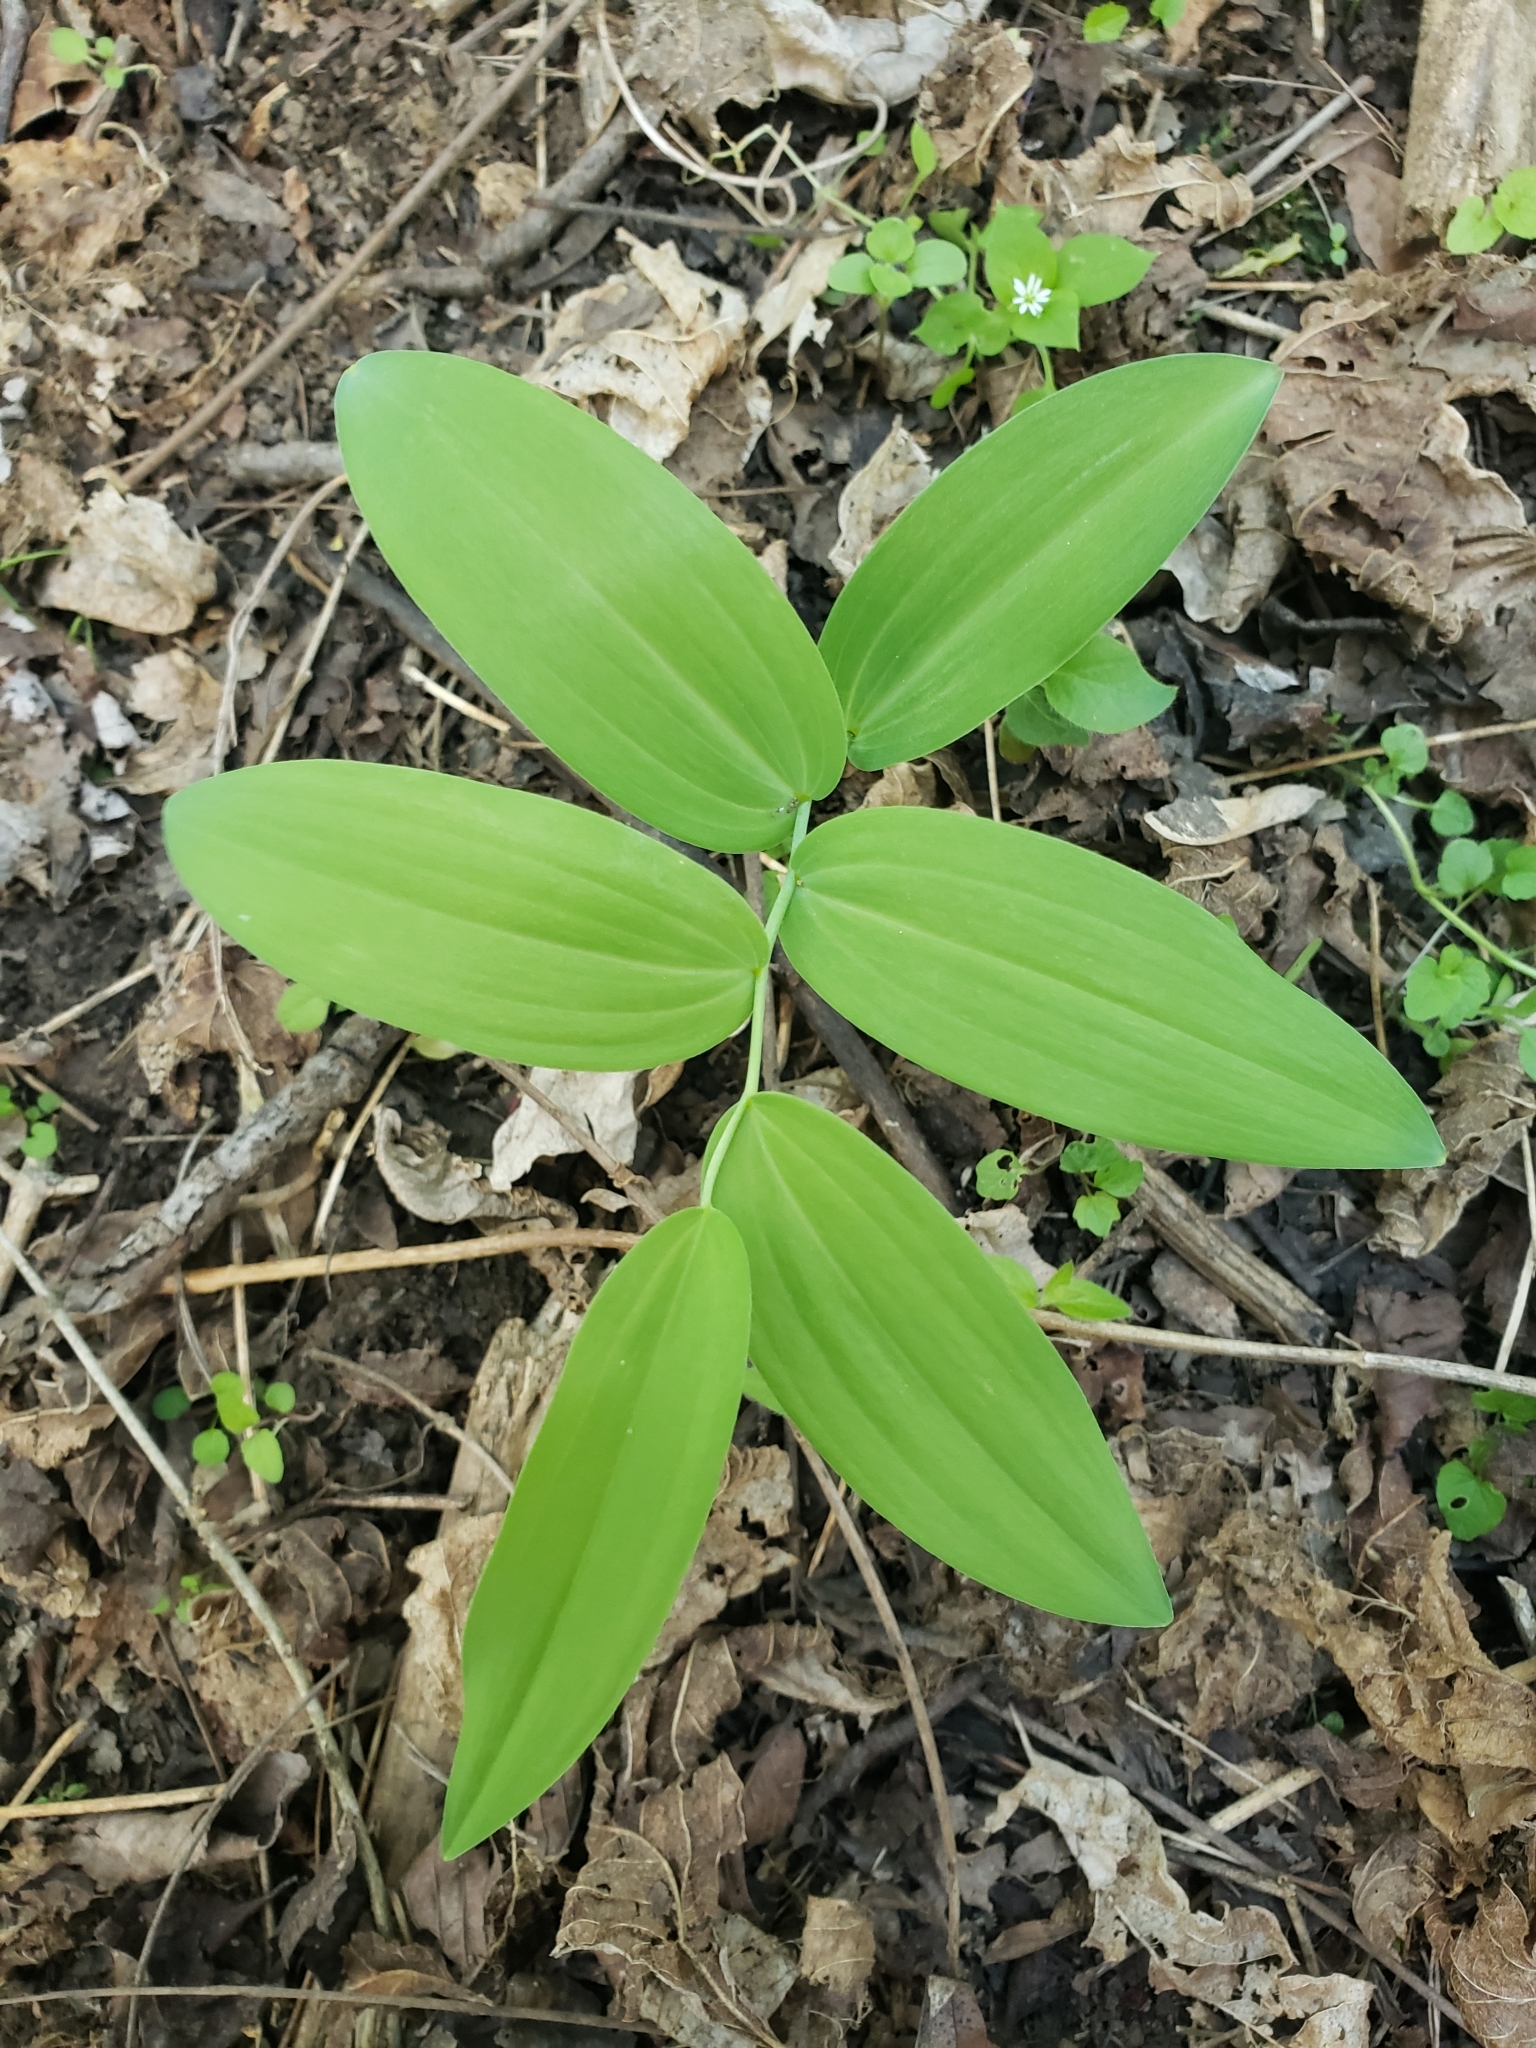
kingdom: Plantae
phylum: Tracheophyta
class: Liliopsida
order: Asparagales
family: Asparagaceae
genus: Polygonatum
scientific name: Polygonatum biflorum
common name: American solomon's-seal
